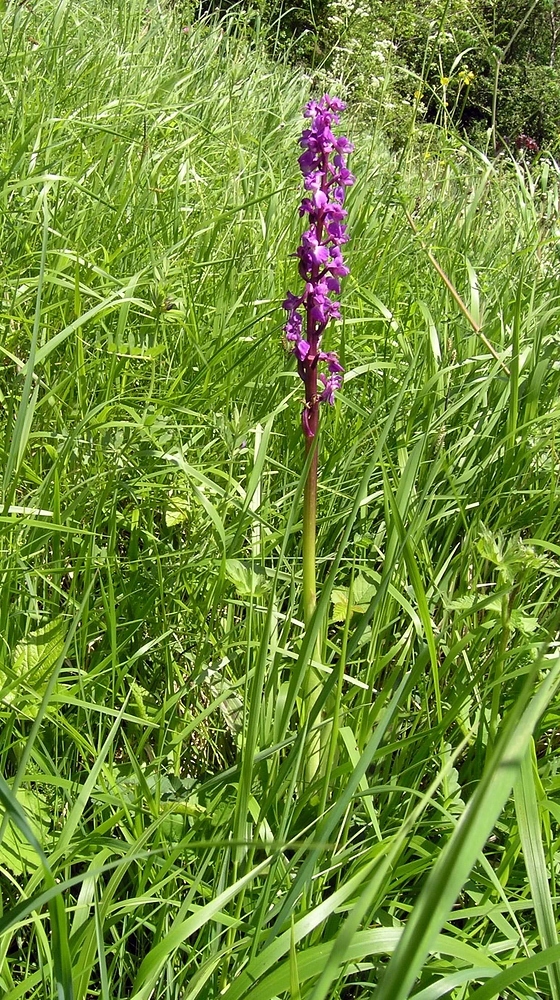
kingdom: Plantae
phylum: Tracheophyta
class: Liliopsida
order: Asparagales
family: Orchidaceae
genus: Orchis
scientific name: Orchis mascula
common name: Early-purple orchid
